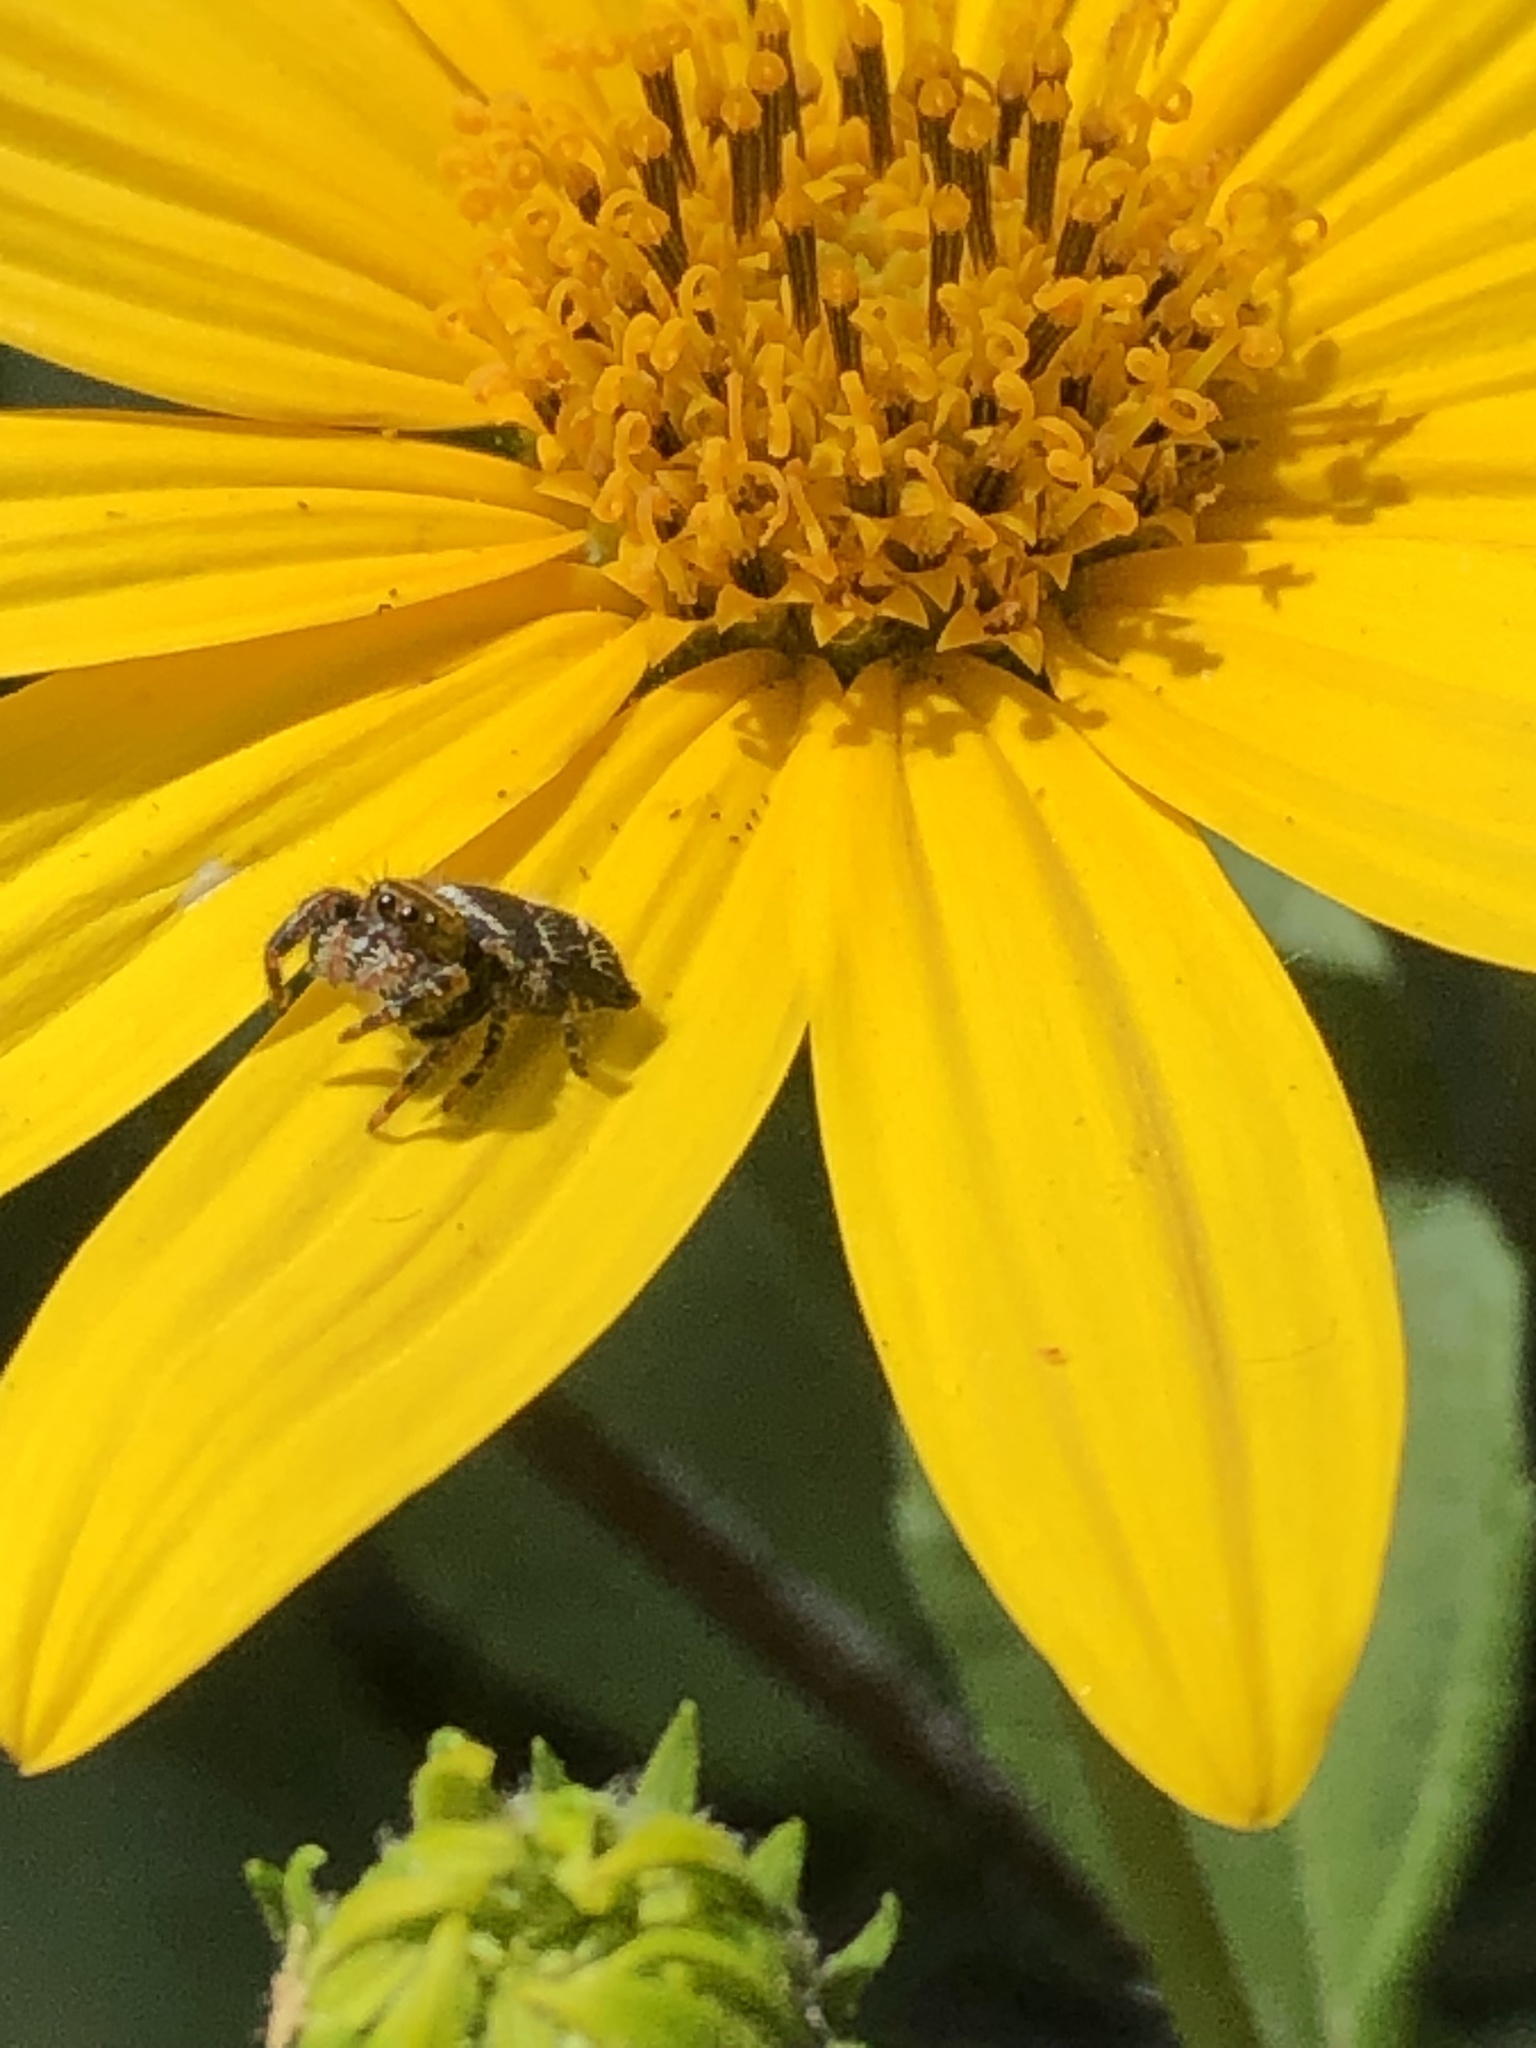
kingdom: Animalia
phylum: Arthropoda
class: Arachnida
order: Araneae
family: Salticidae
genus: Phidippus
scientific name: Phidippus audax
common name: Bold jumper
